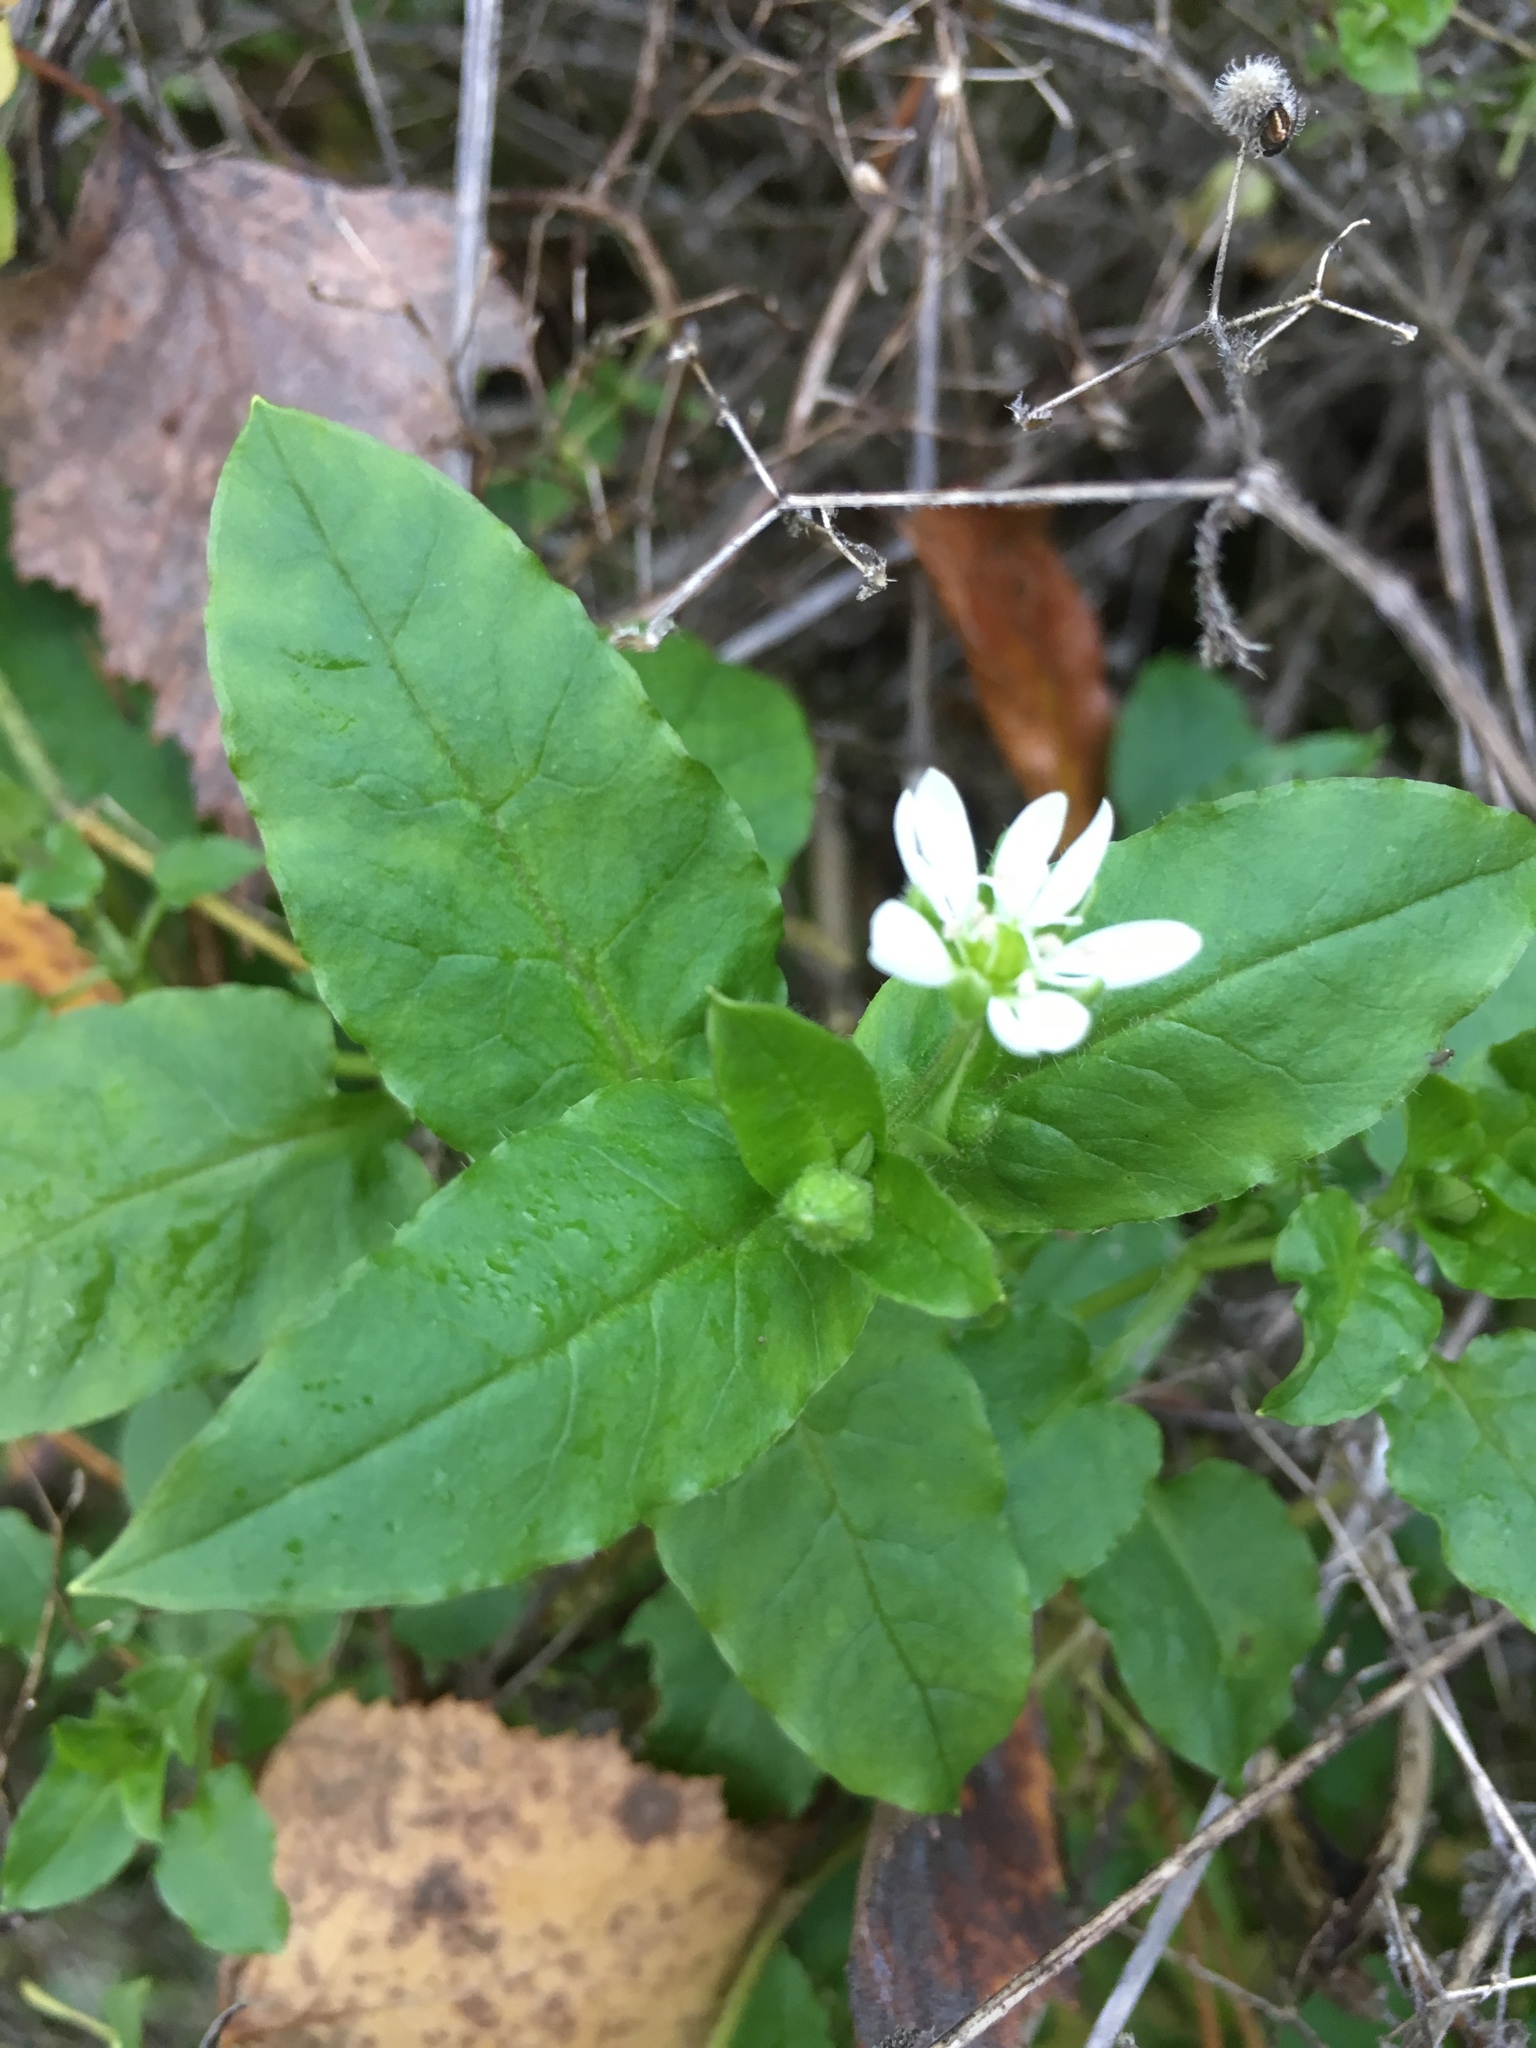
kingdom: Plantae
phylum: Tracheophyta
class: Magnoliopsida
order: Caryophyllales
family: Caryophyllaceae
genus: Stellaria
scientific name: Stellaria aquatica
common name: Water chickweed
